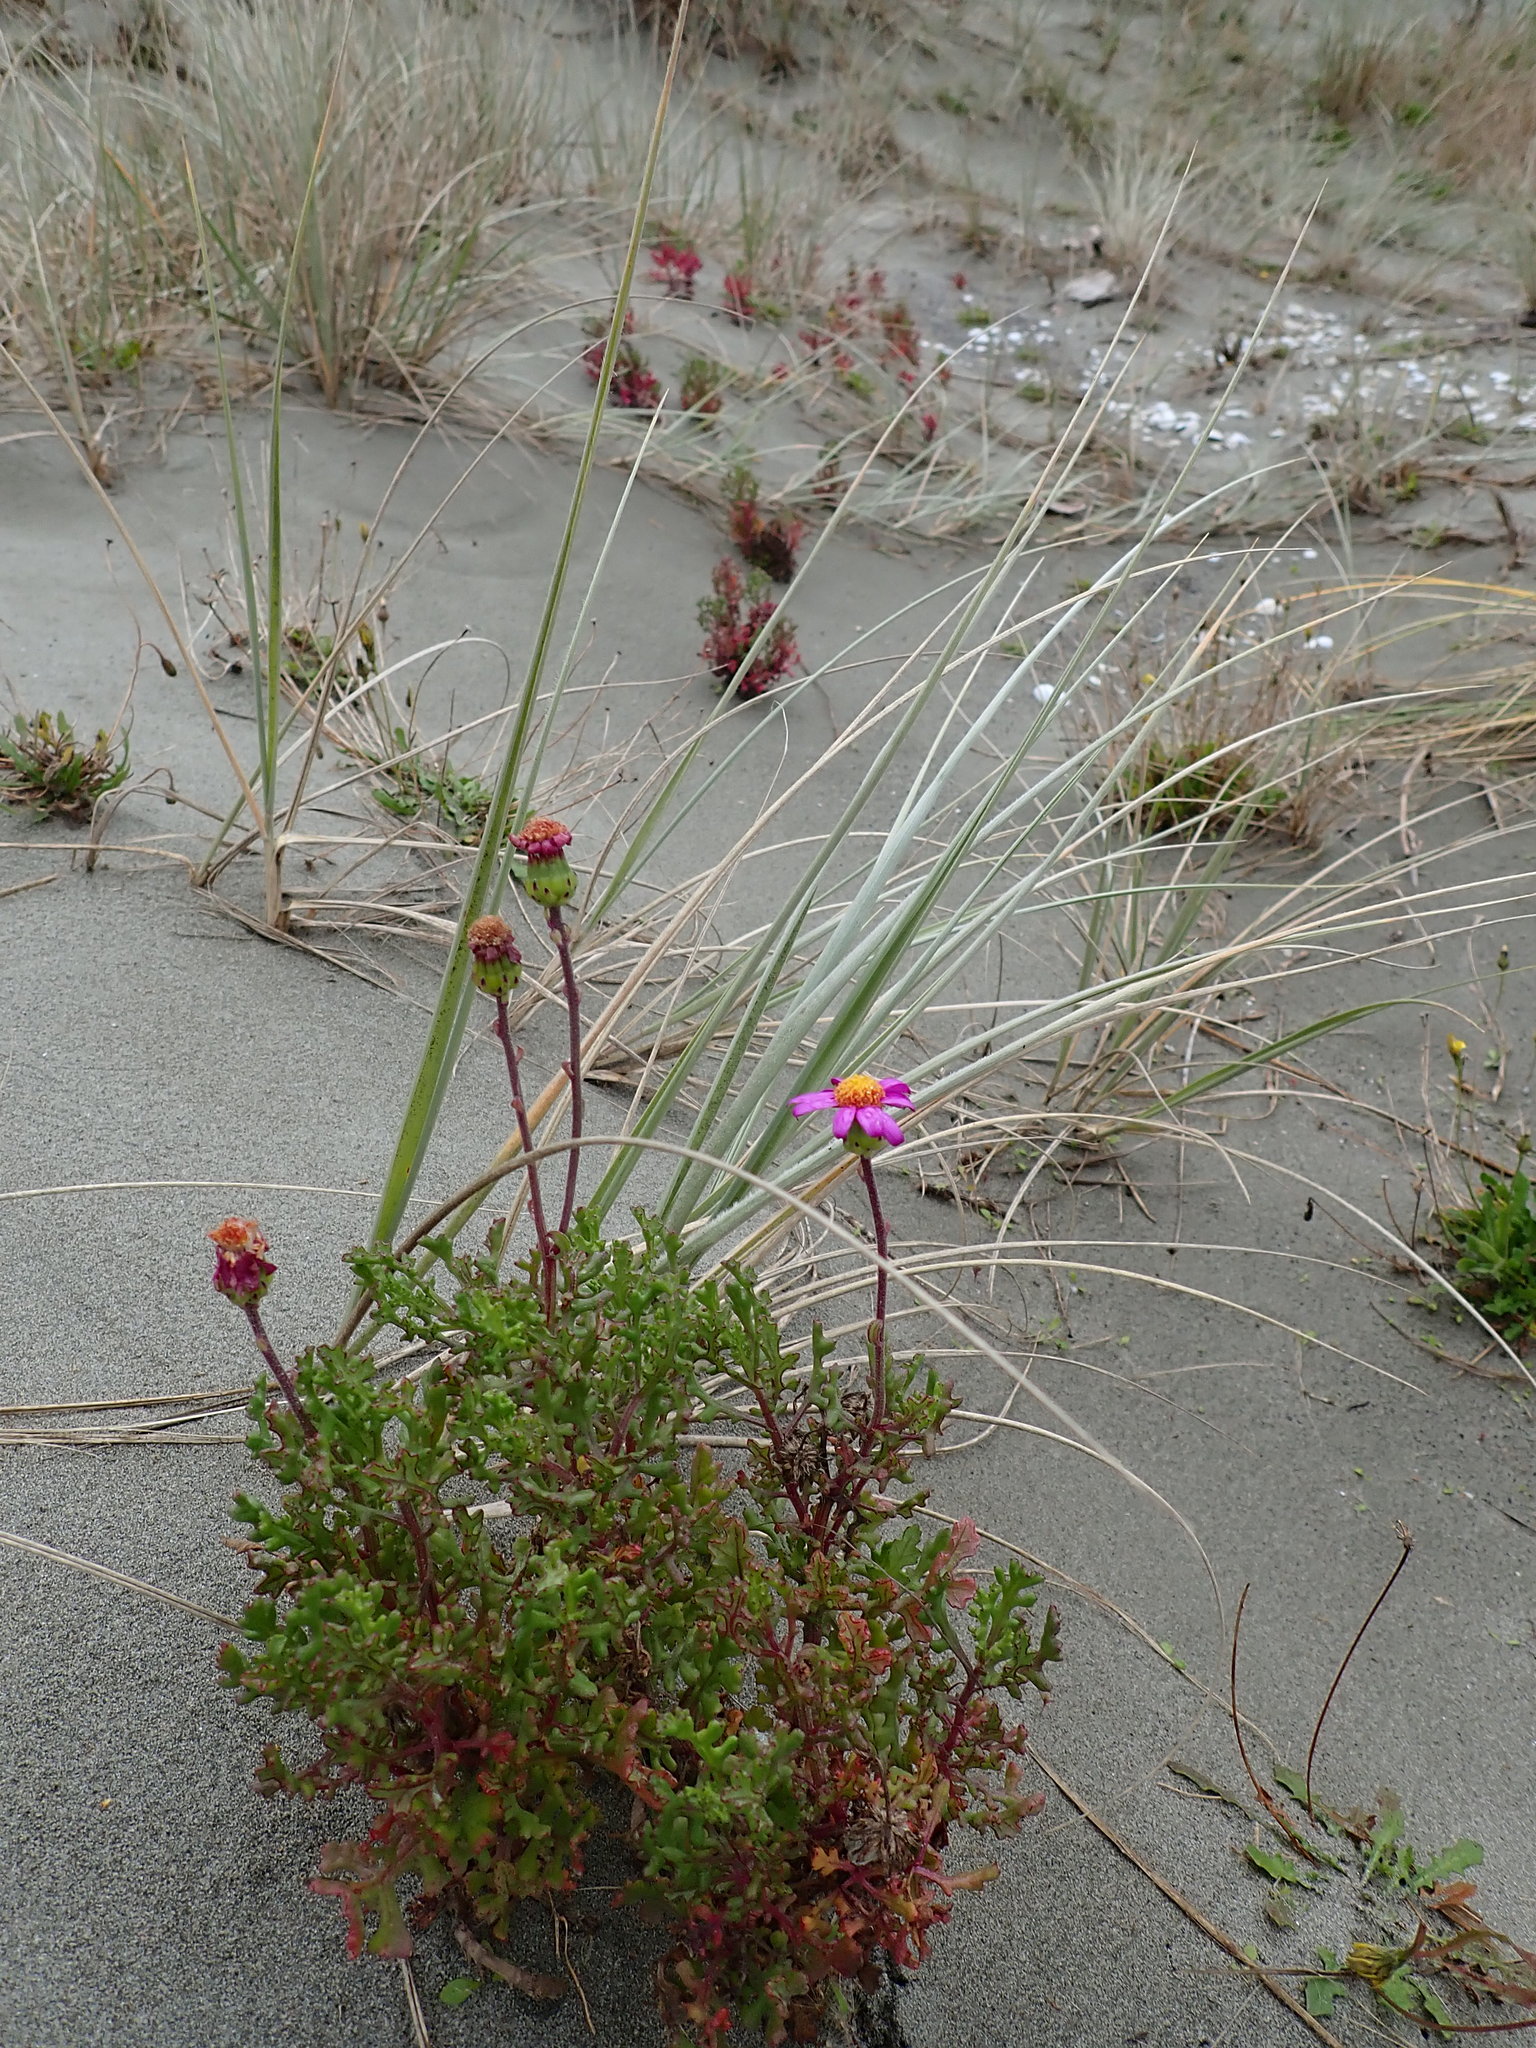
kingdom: Plantae
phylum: Tracheophyta
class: Magnoliopsida
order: Asterales
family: Asteraceae
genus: Senecio
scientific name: Senecio elegans
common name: Purple groundsel
